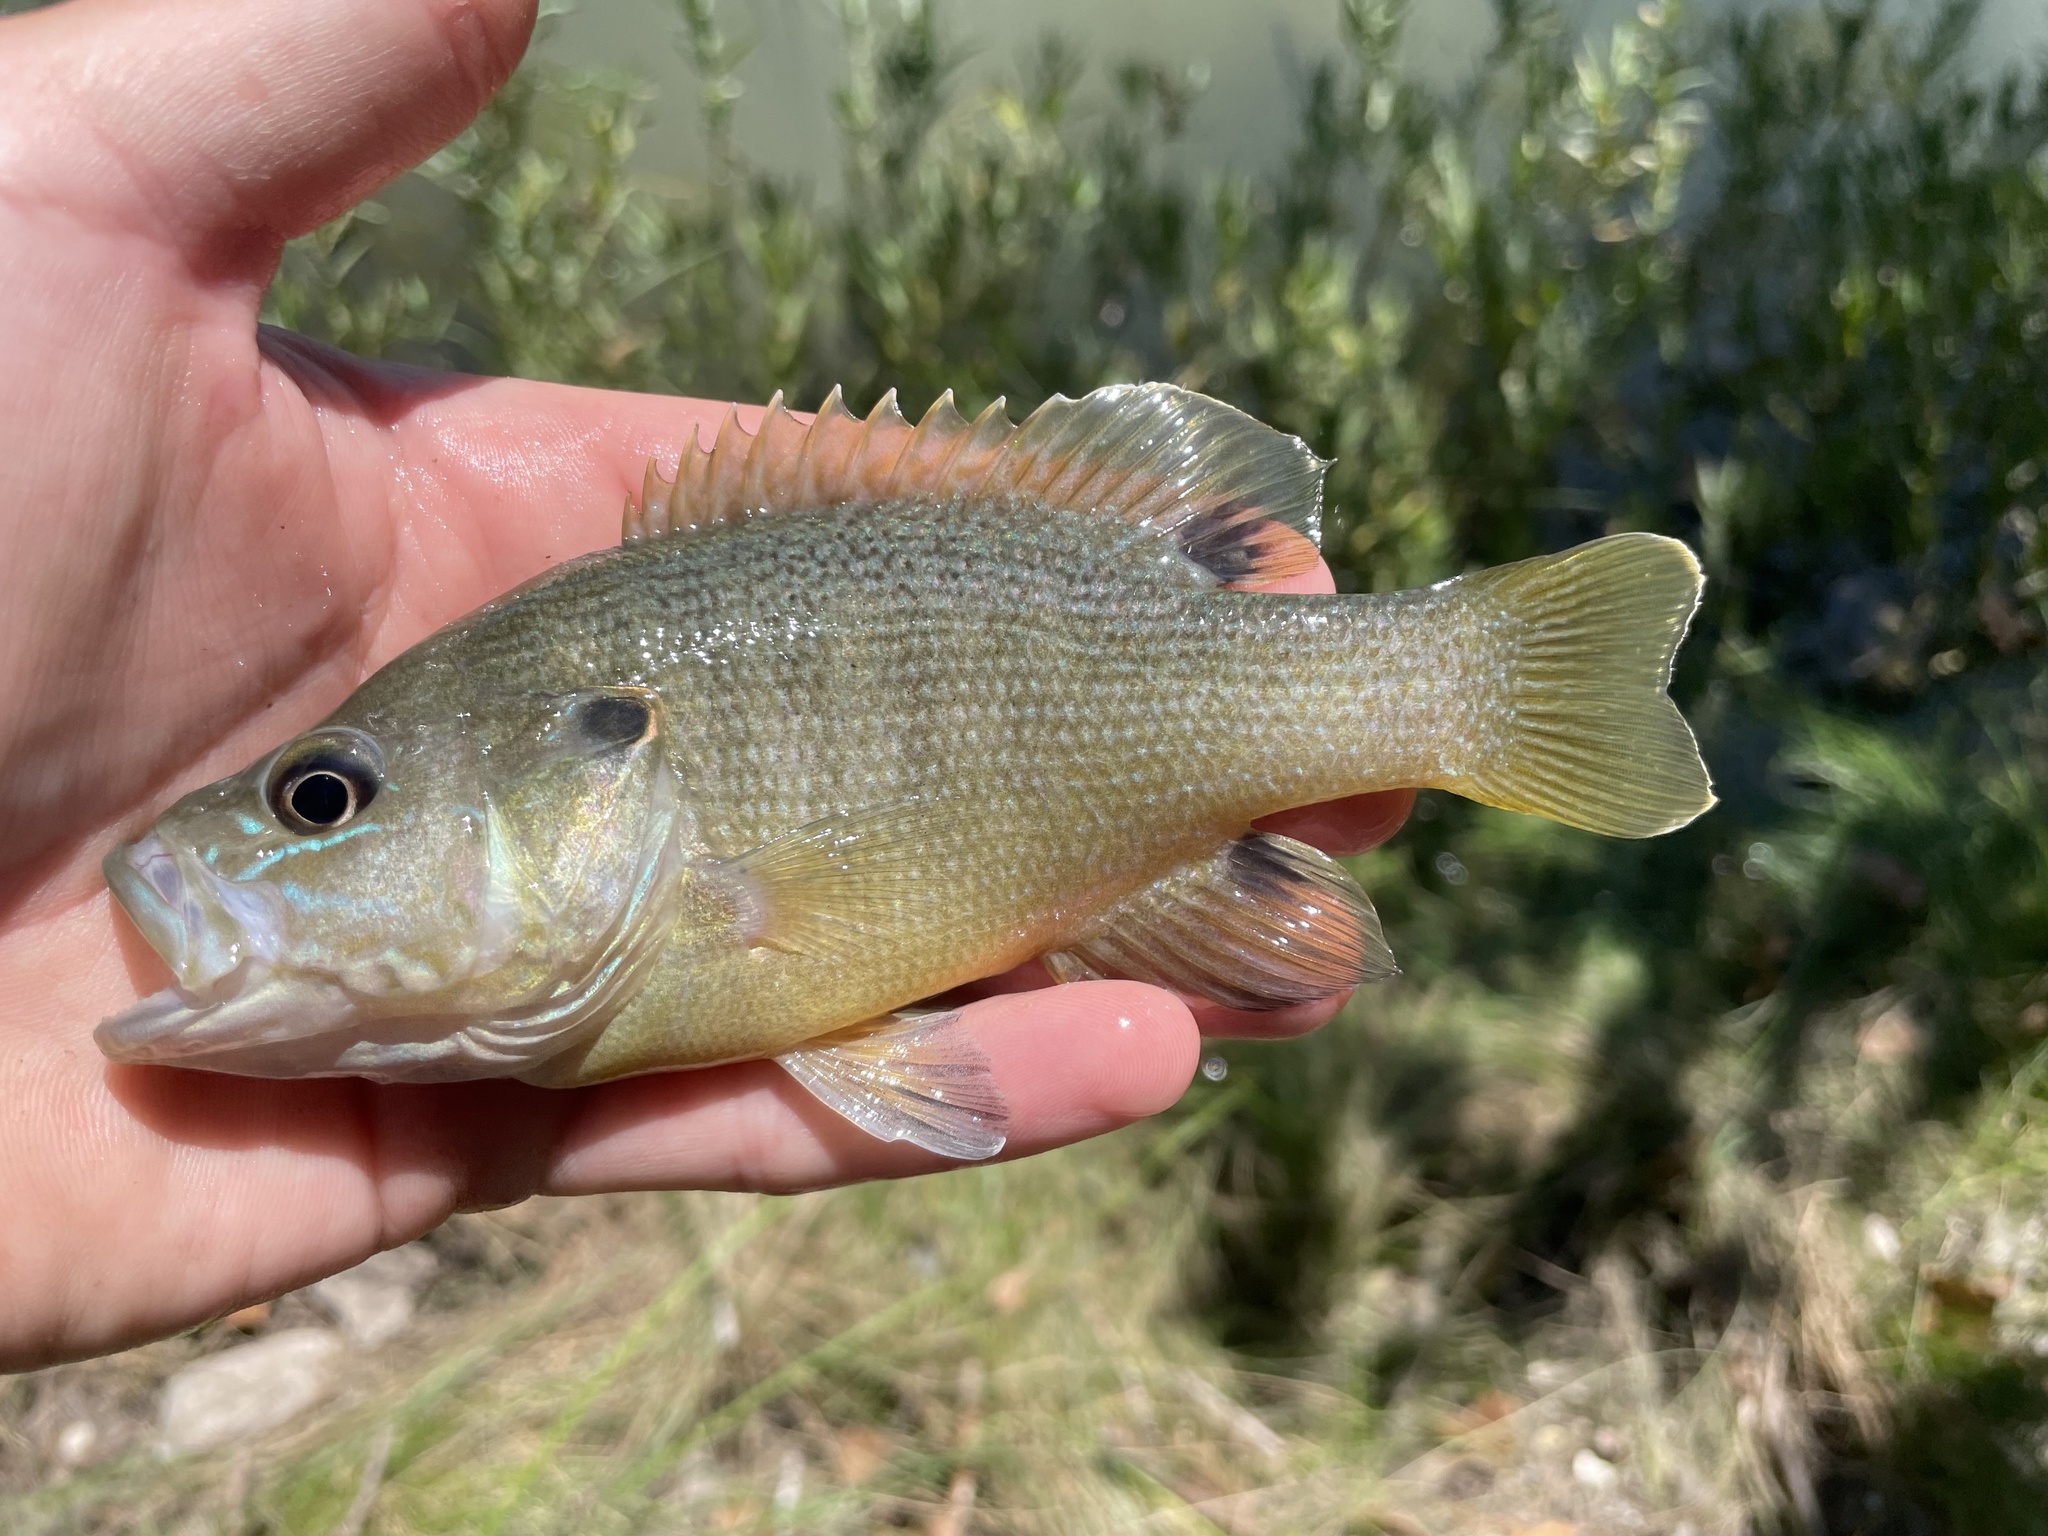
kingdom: Animalia
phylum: Chordata
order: Perciformes
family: Centrarchidae
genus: Lepomis
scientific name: Lepomis cyanellus
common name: Green sunfish
